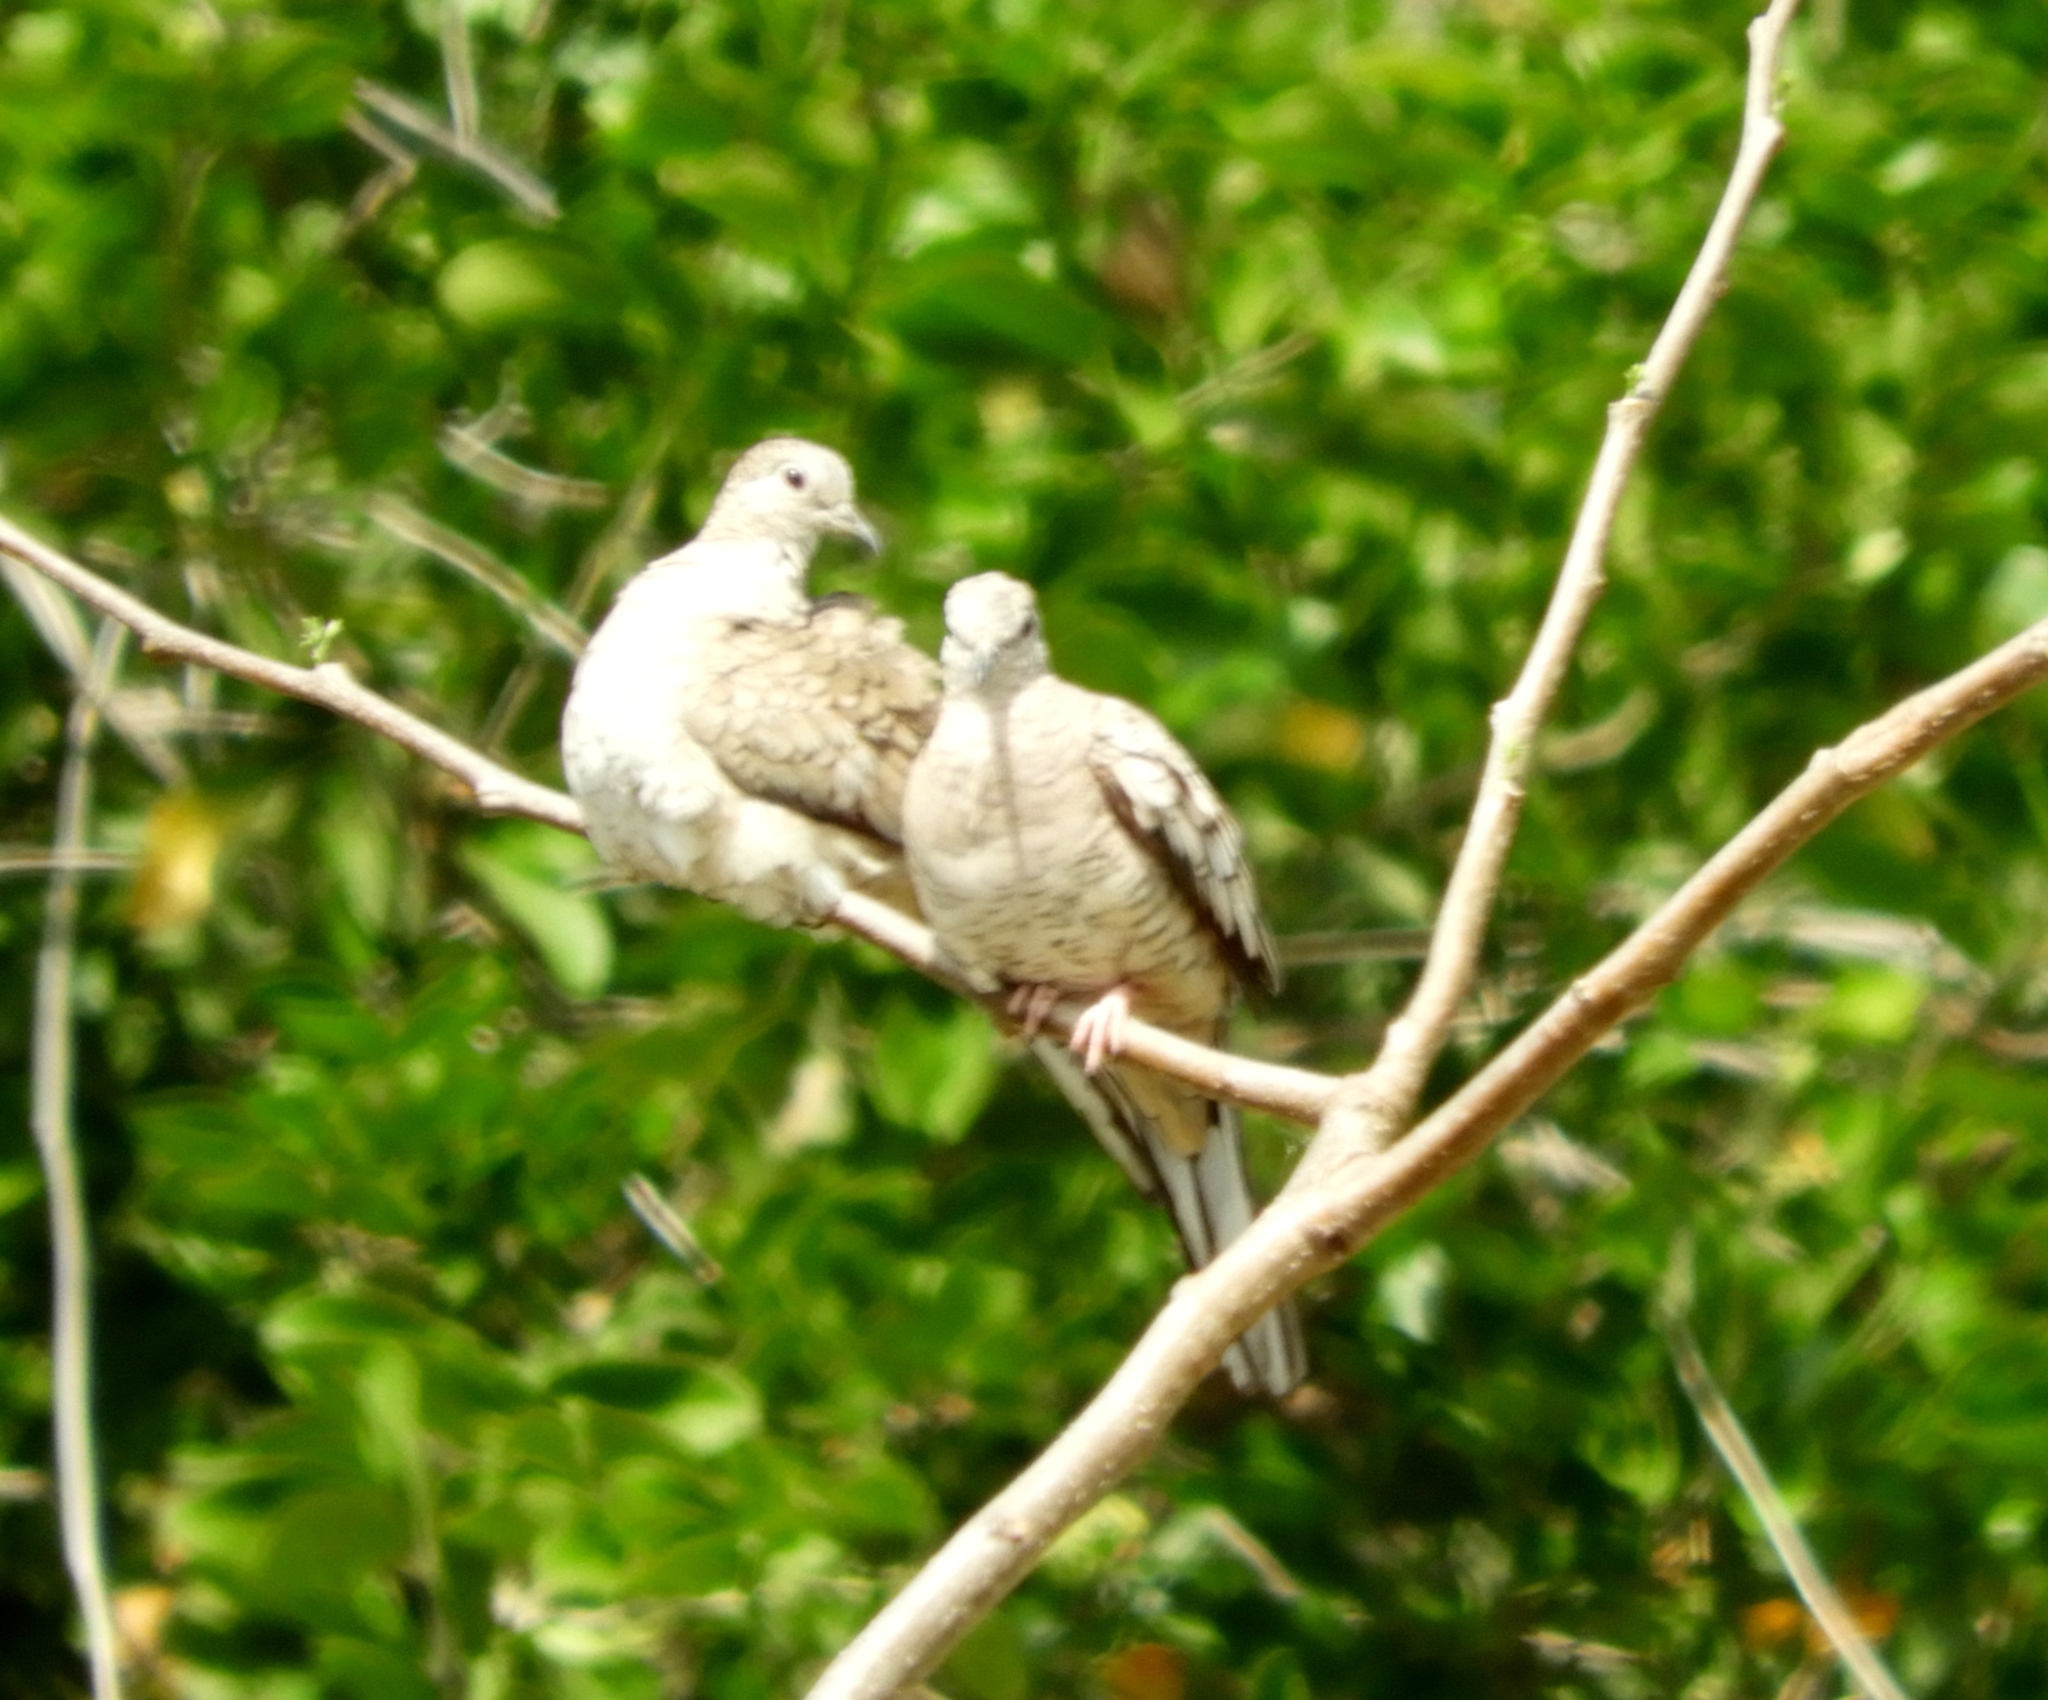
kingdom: Animalia
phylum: Chordata
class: Aves
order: Columbiformes
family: Columbidae
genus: Columbina
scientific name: Columbina inca
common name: Inca dove
